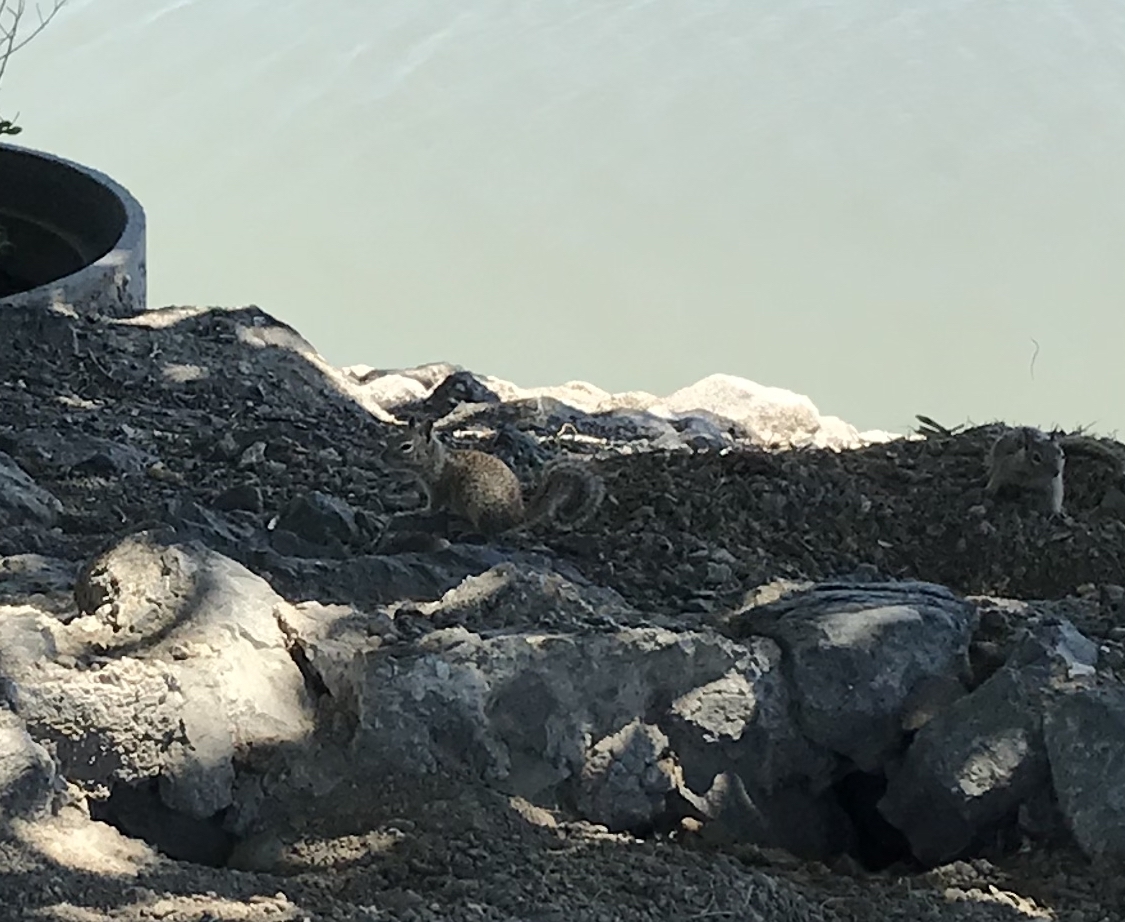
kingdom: Animalia
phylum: Chordata
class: Mammalia
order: Rodentia
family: Sciuridae
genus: Otospermophilus
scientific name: Otospermophilus beecheyi
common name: California ground squirrel
